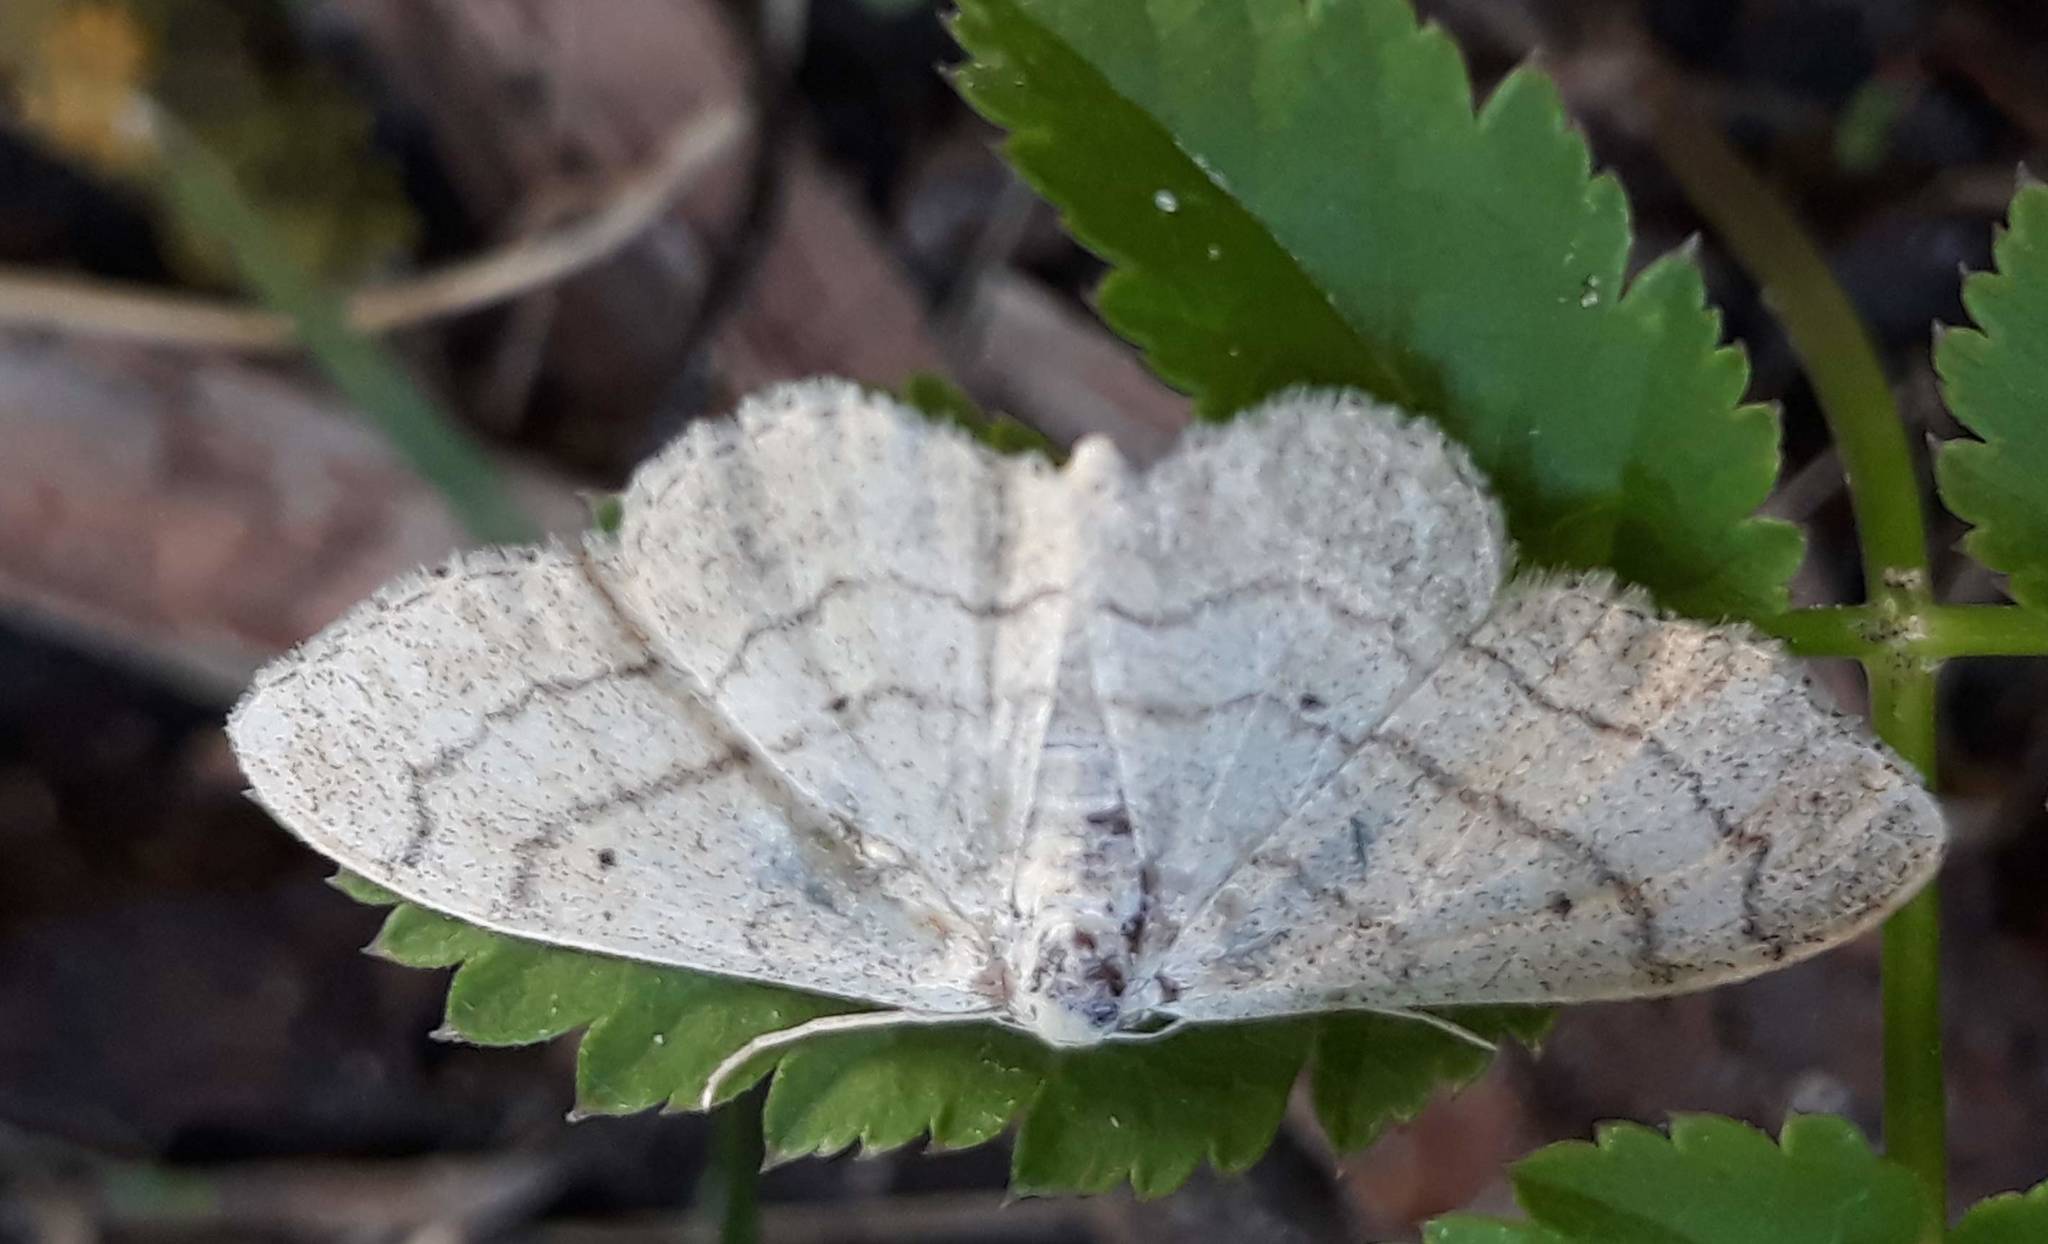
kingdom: Animalia
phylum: Arthropoda
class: Insecta
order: Lepidoptera
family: Geometridae
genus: Idaea
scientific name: Idaea aversata
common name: Riband wave
